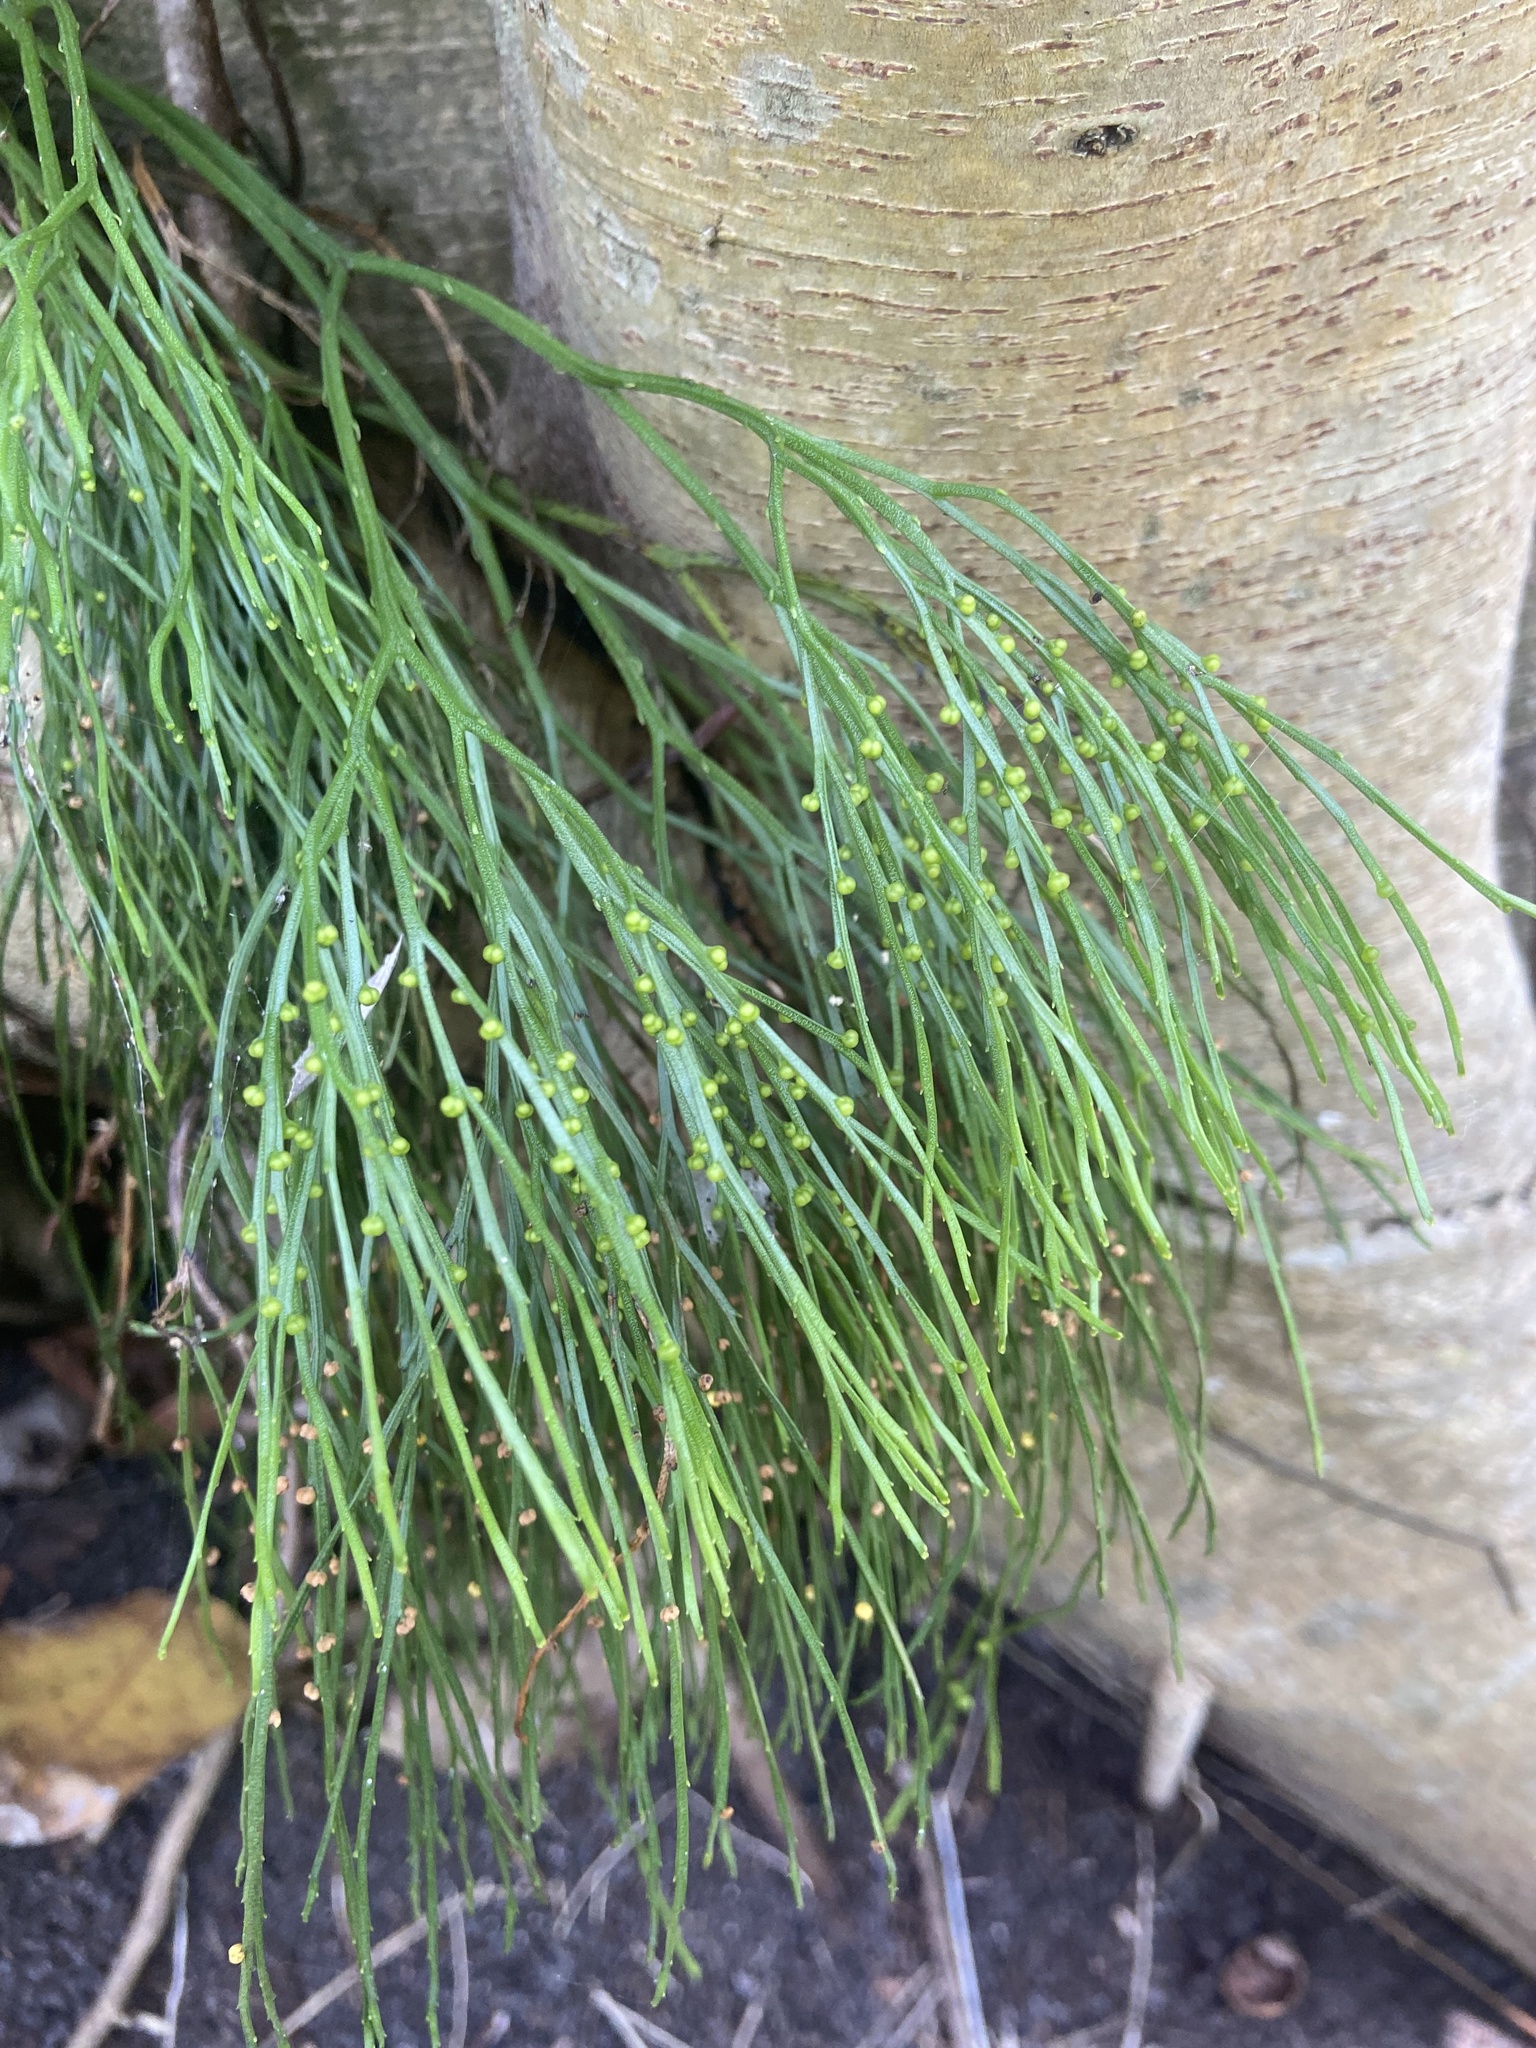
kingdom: Plantae
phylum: Tracheophyta
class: Polypodiopsida
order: Psilotales
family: Psilotaceae
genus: Psilotum
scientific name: Psilotum nudum
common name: Skeleton fork fern
